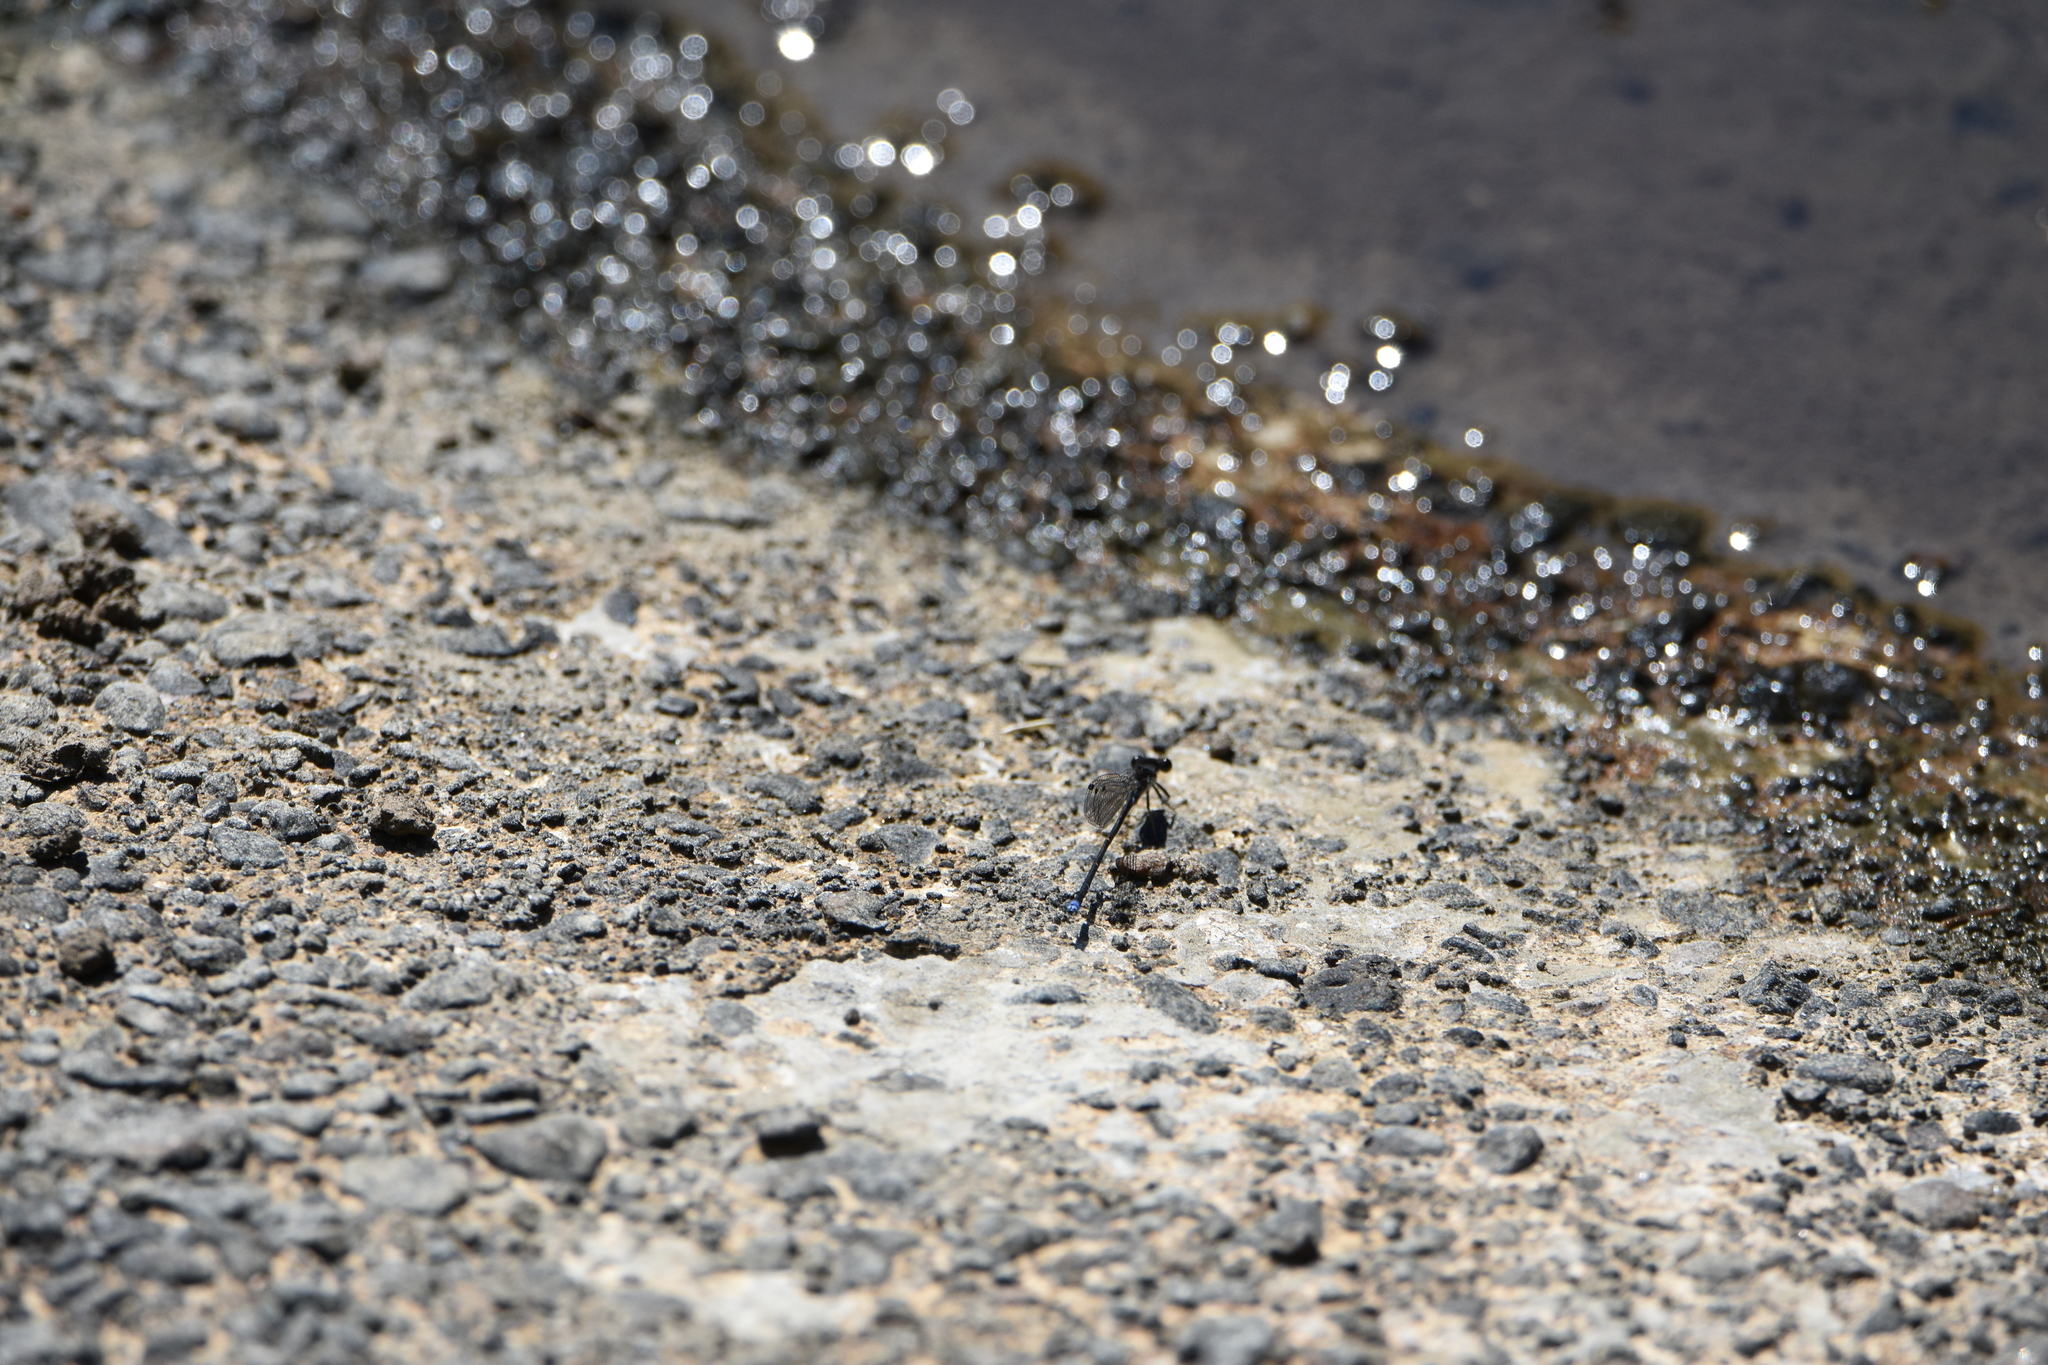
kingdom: Animalia
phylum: Arthropoda
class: Insecta
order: Odonata
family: Coenagrionidae
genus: Argia
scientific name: Argia tibialis
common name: Blue-tipped dancer
